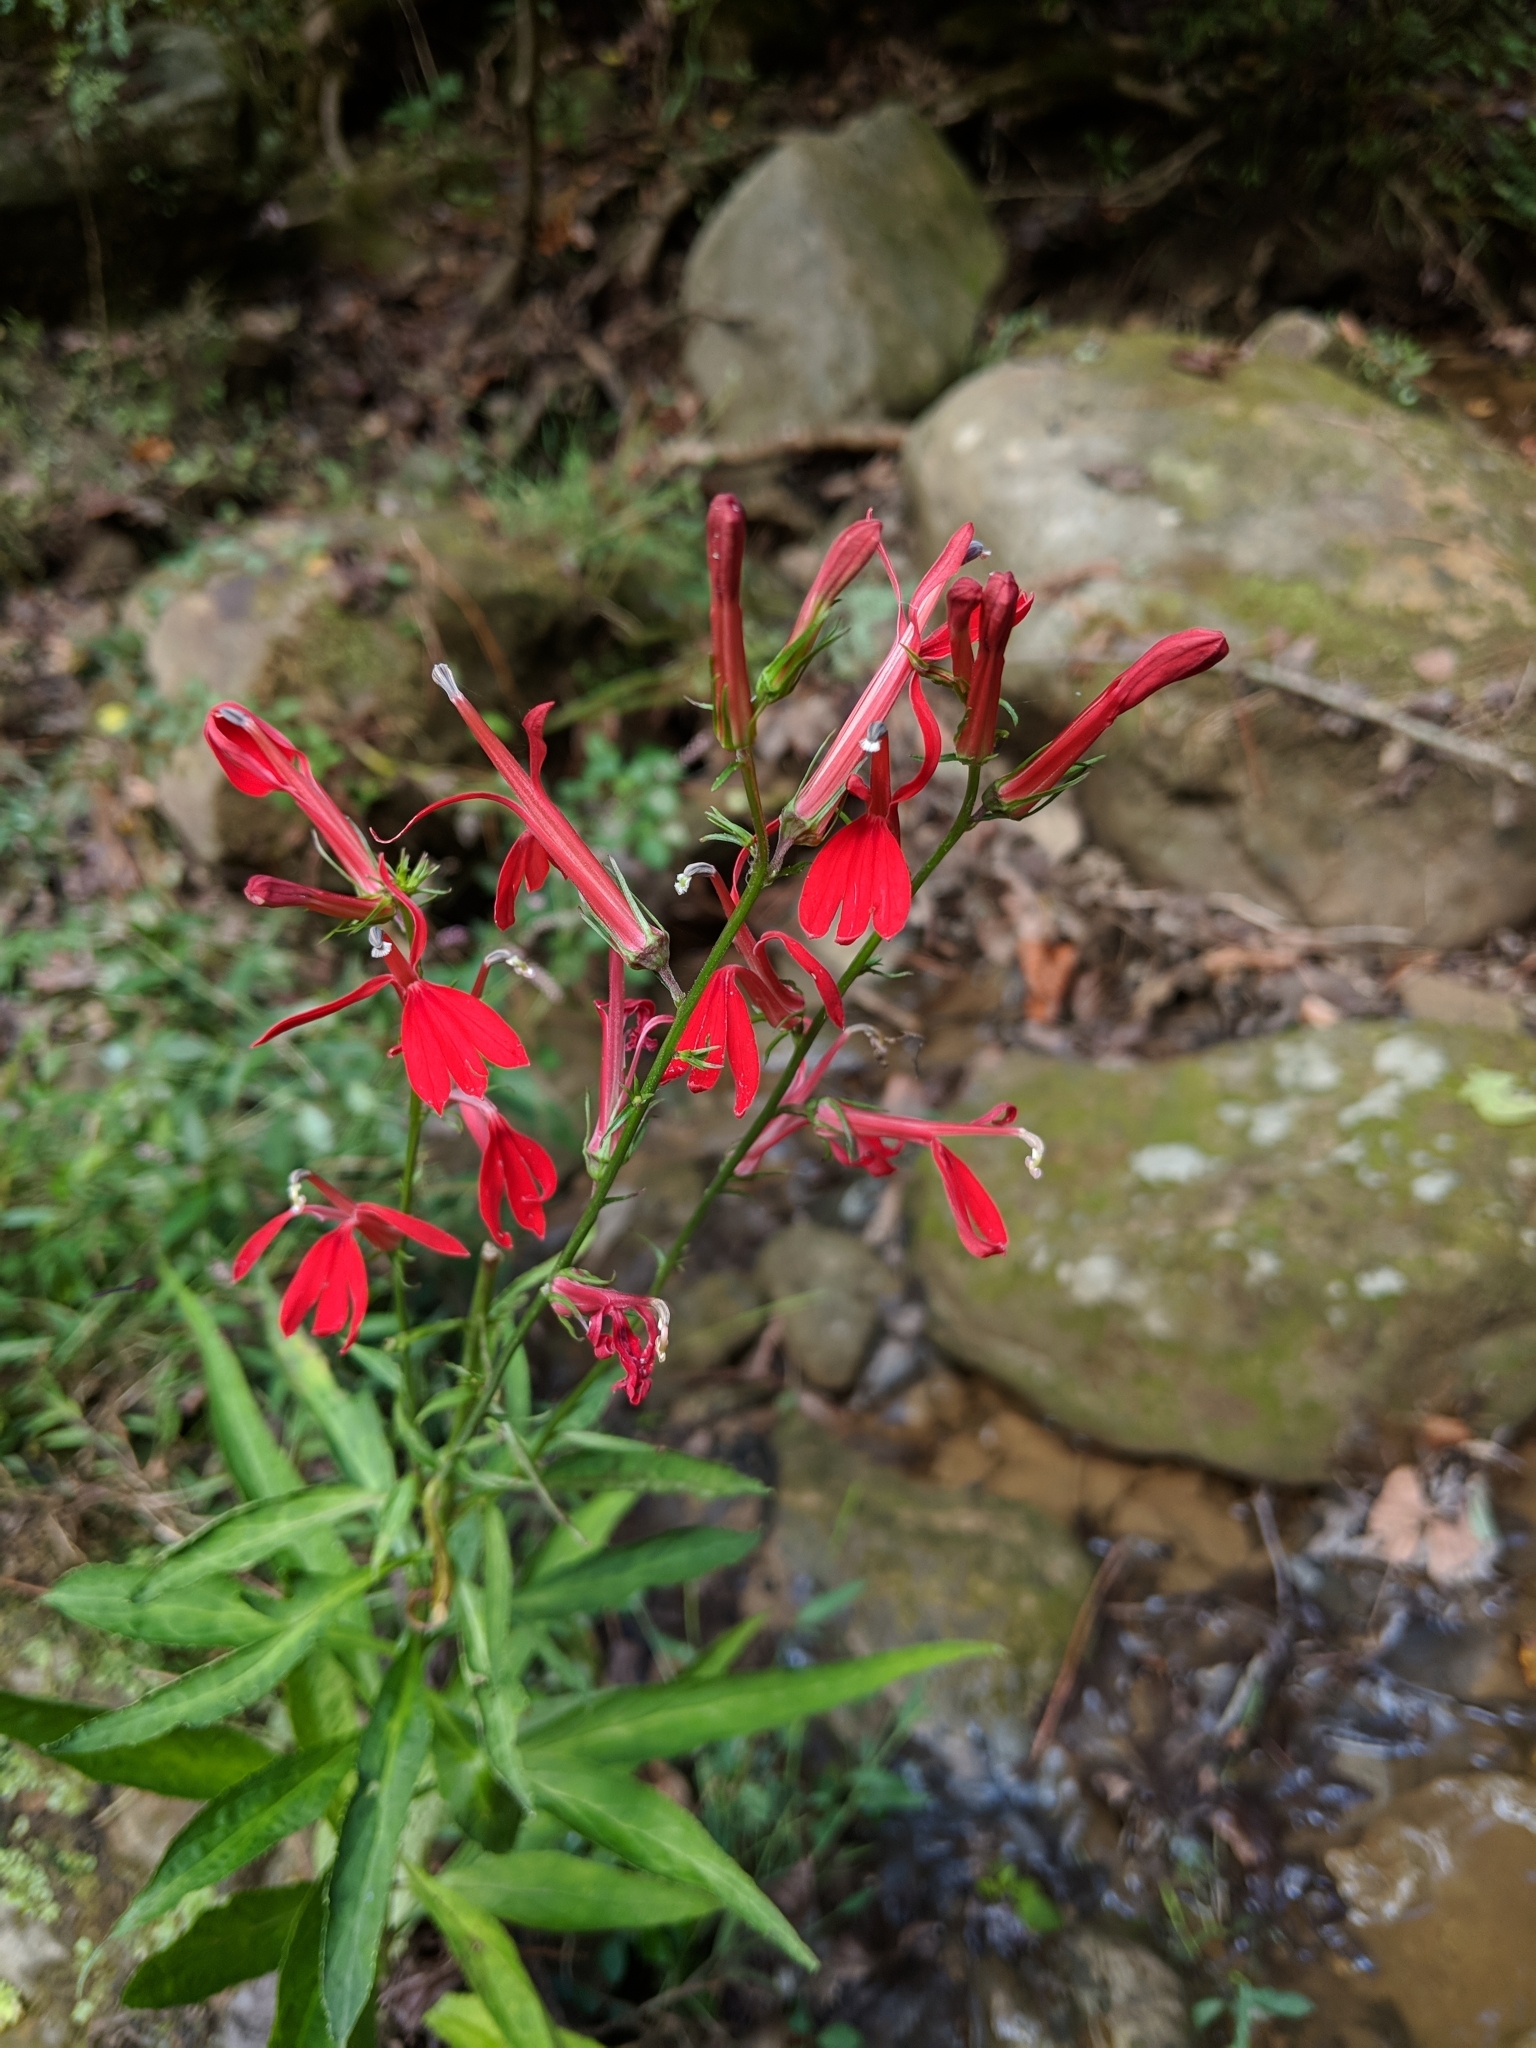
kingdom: Plantae
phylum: Tracheophyta
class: Magnoliopsida
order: Asterales
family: Campanulaceae
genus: Lobelia
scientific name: Lobelia cardinalis
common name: Cardinal flower
